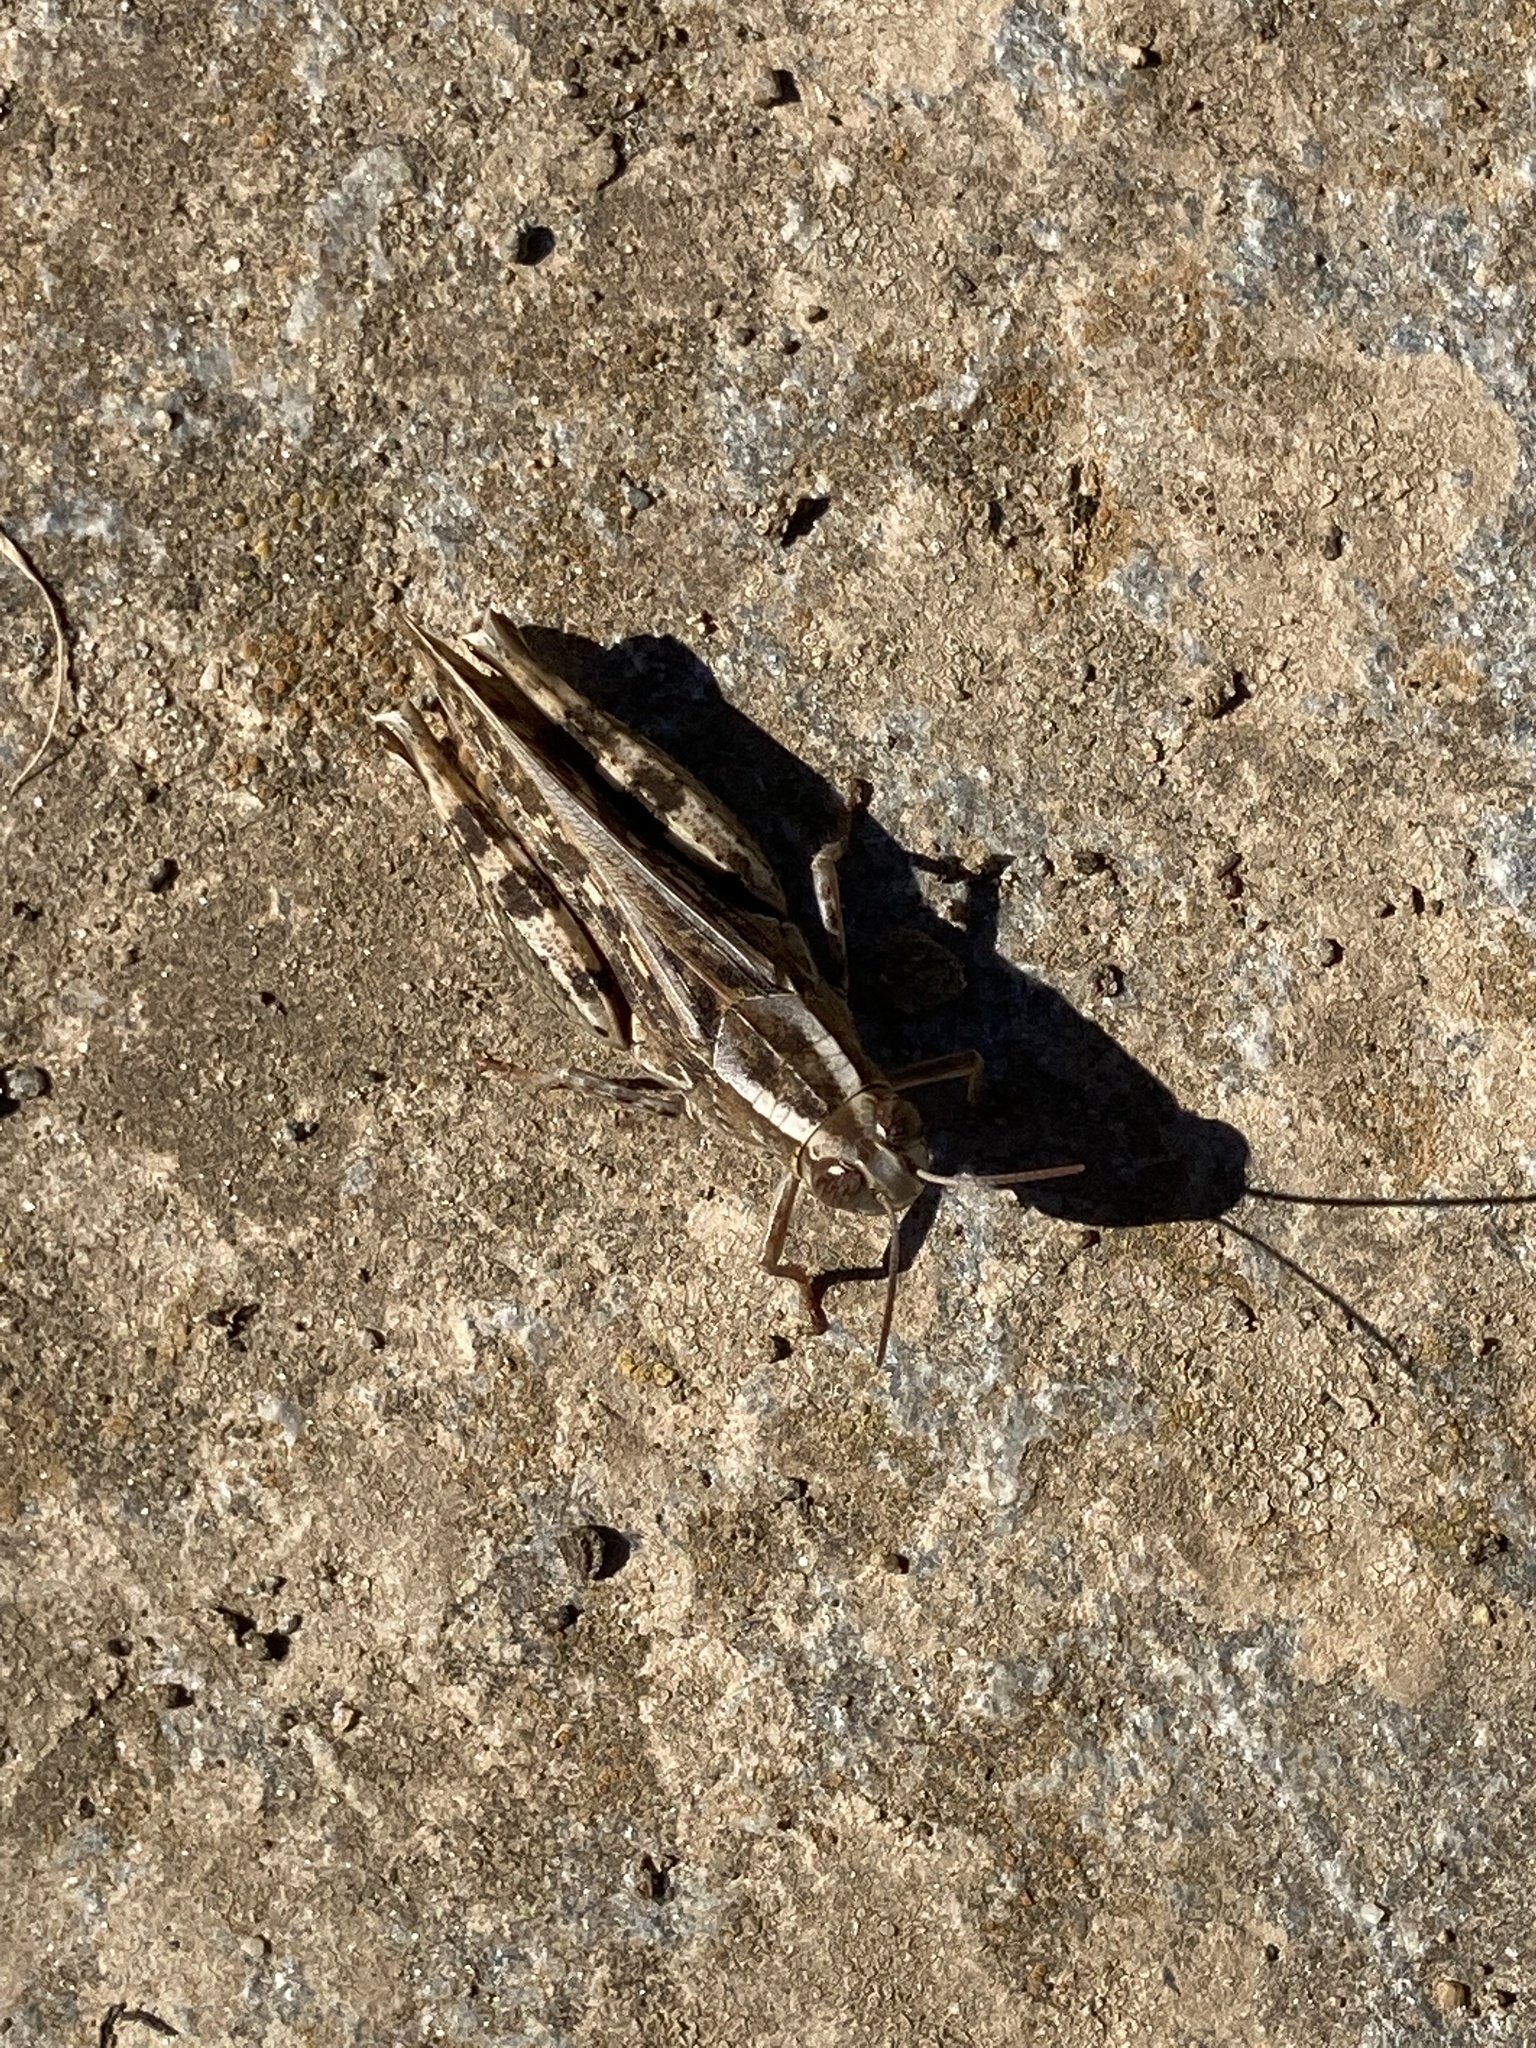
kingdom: Animalia
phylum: Arthropoda
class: Insecta
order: Orthoptera
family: Acrididae
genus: Calliptamus
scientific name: Calliptamus
